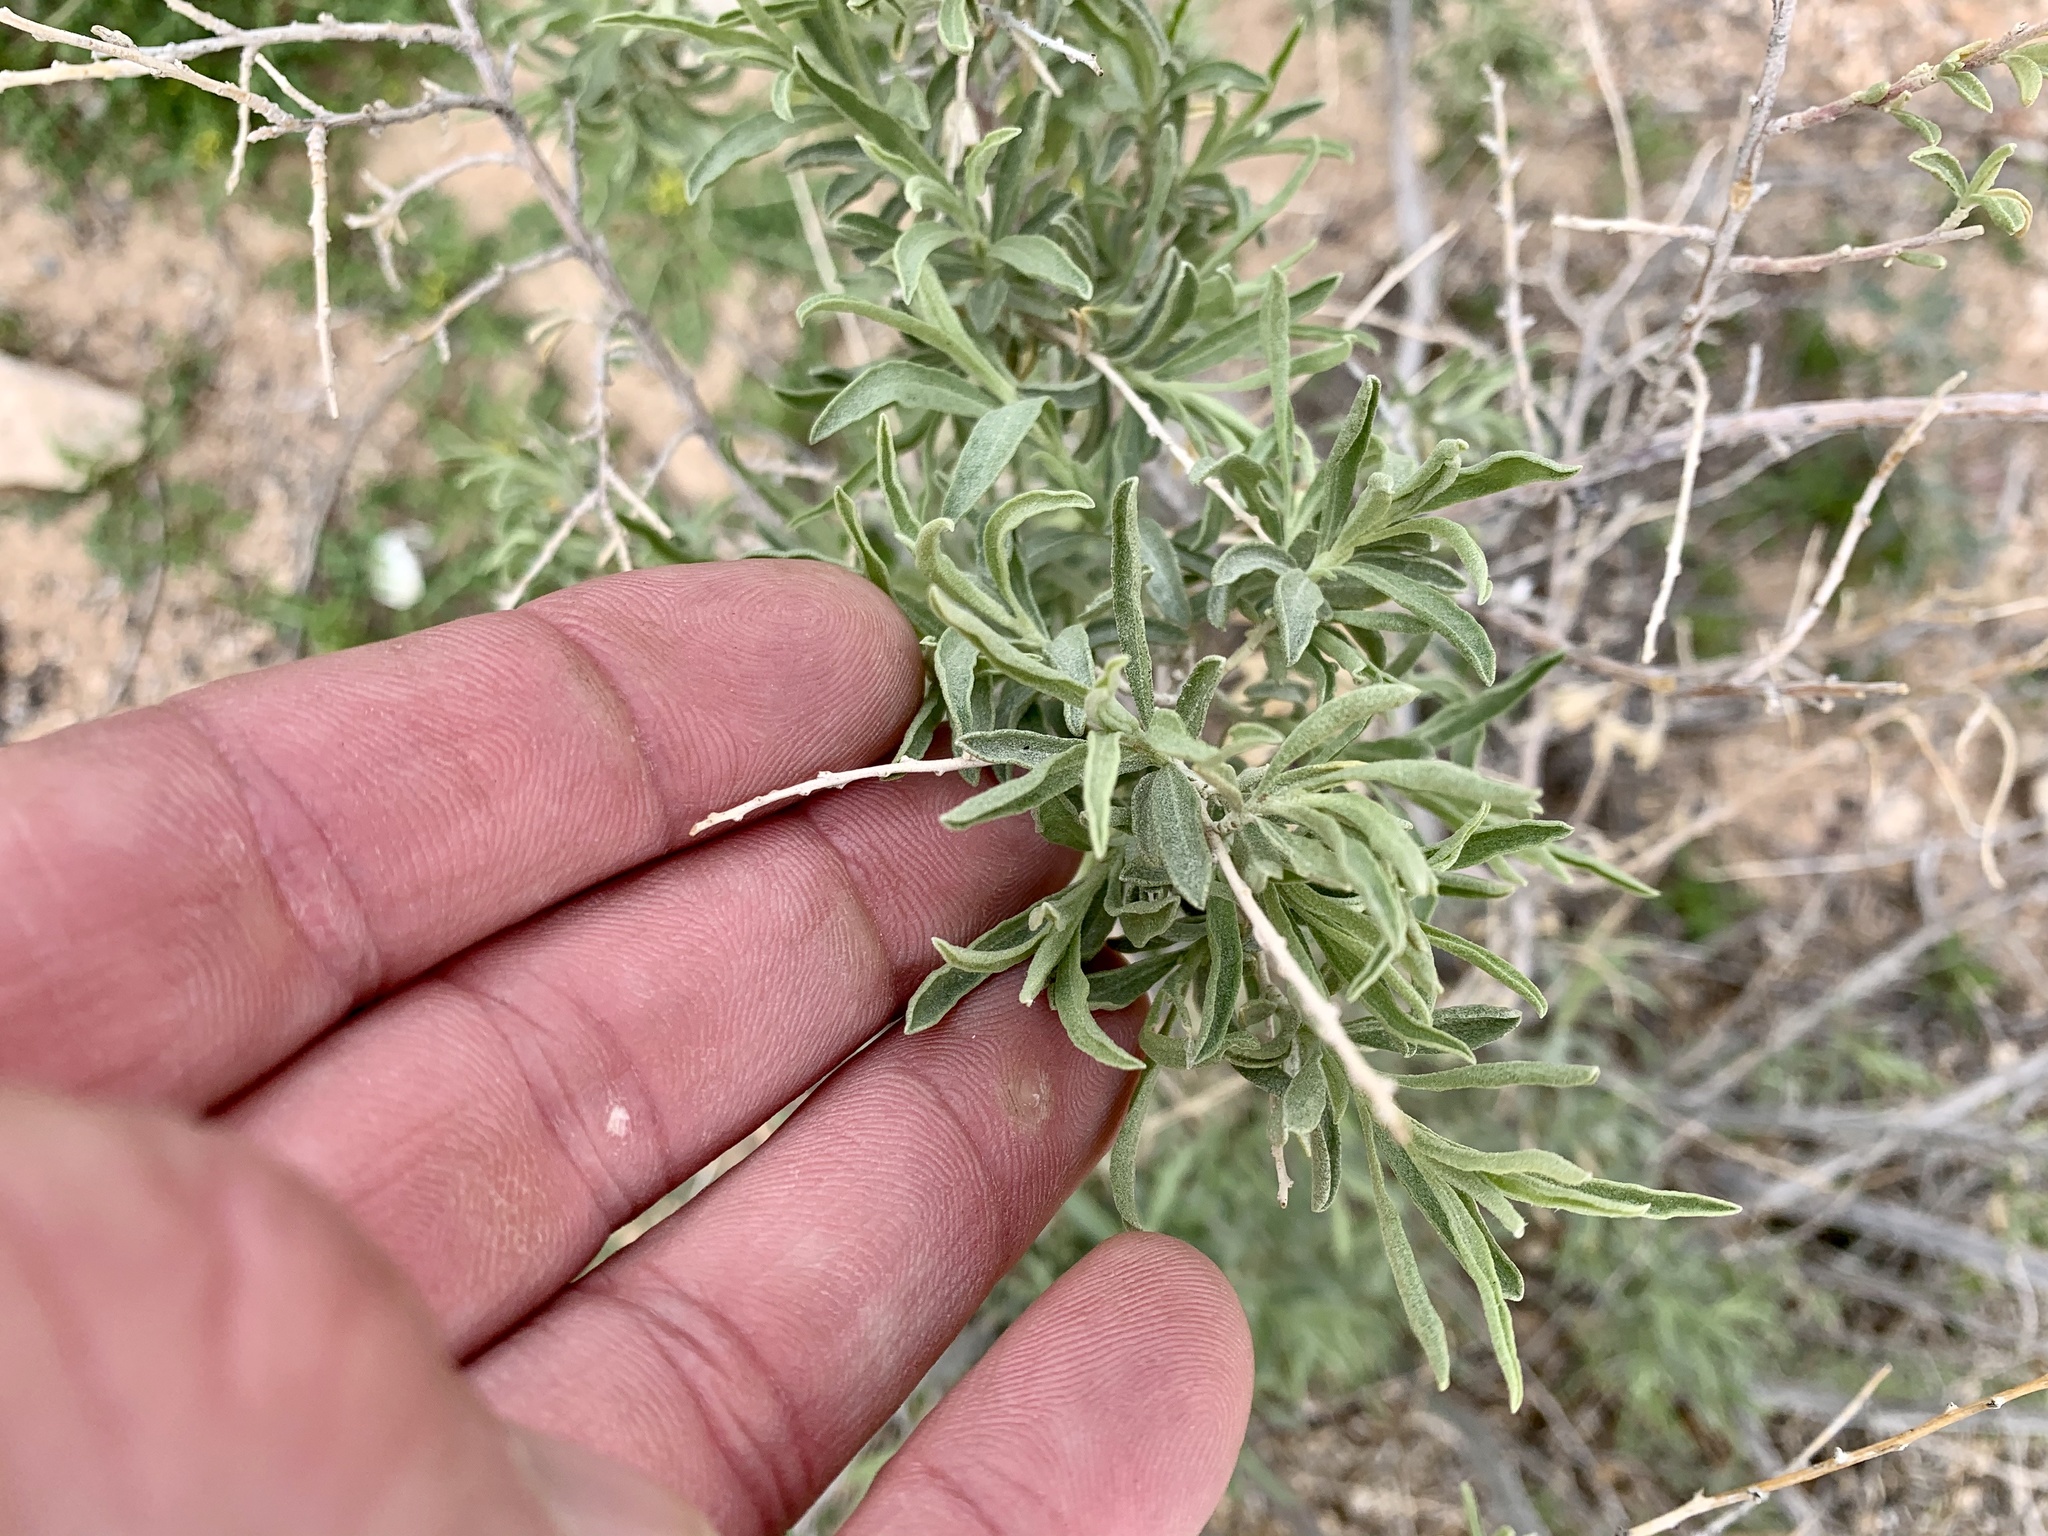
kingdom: Plantae
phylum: Tracheophyta
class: Magnoliopsida
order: Caryophyllales
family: Amaranthaceae
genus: Atriplex
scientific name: Atriplex canescens
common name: Four-wing saltbush
